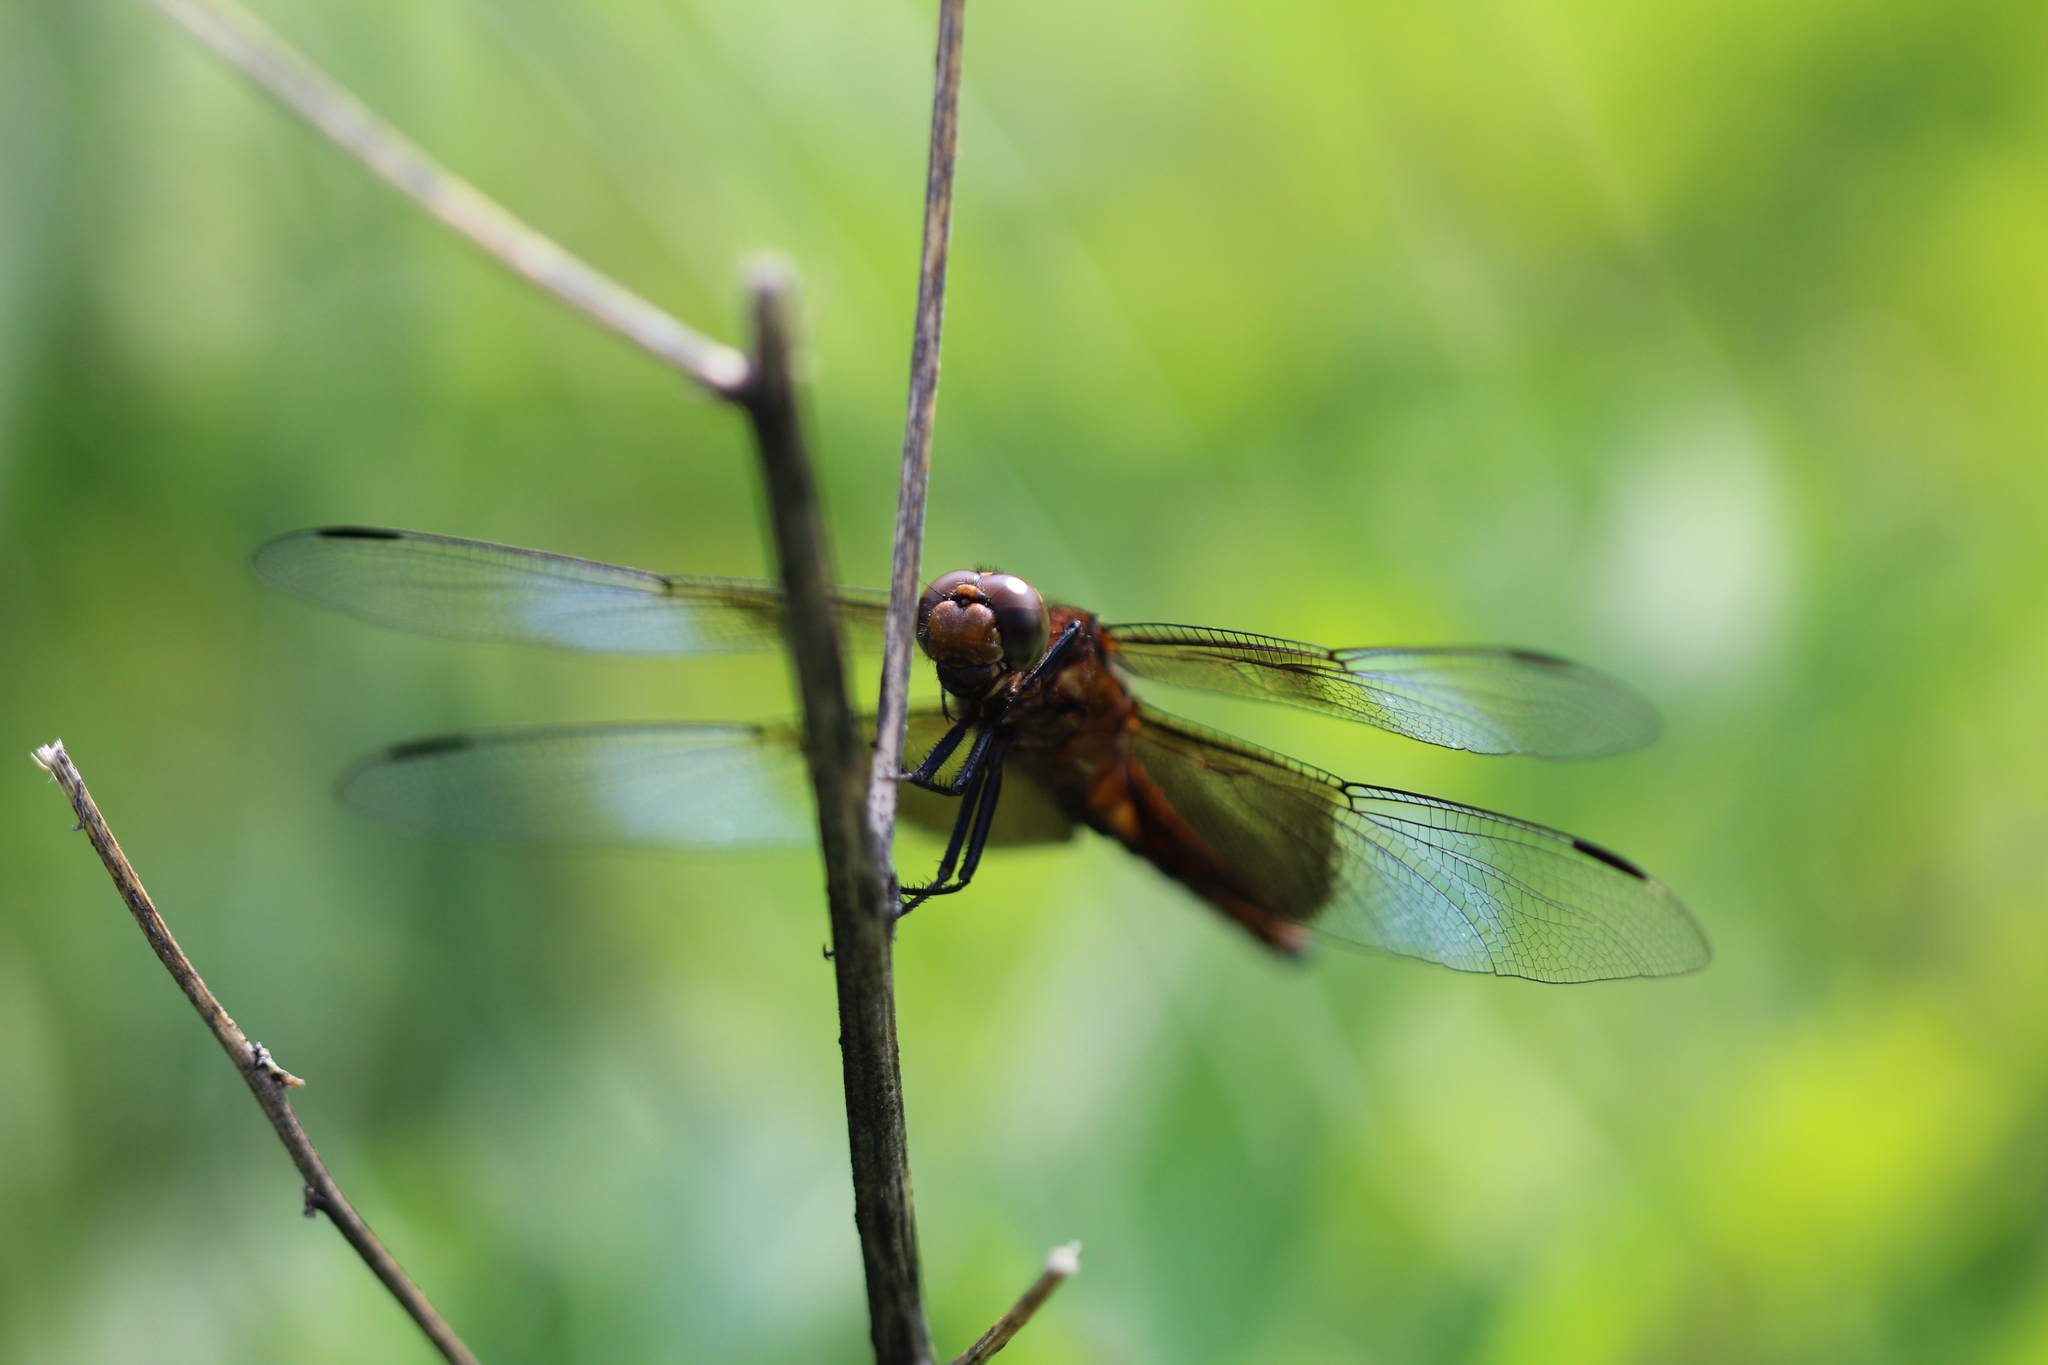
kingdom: Animalia
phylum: Arthropoda
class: Insecta
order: Odonata
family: Libellulidae
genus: Libellula
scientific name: Libellula luctuosa
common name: Widow skimmer
